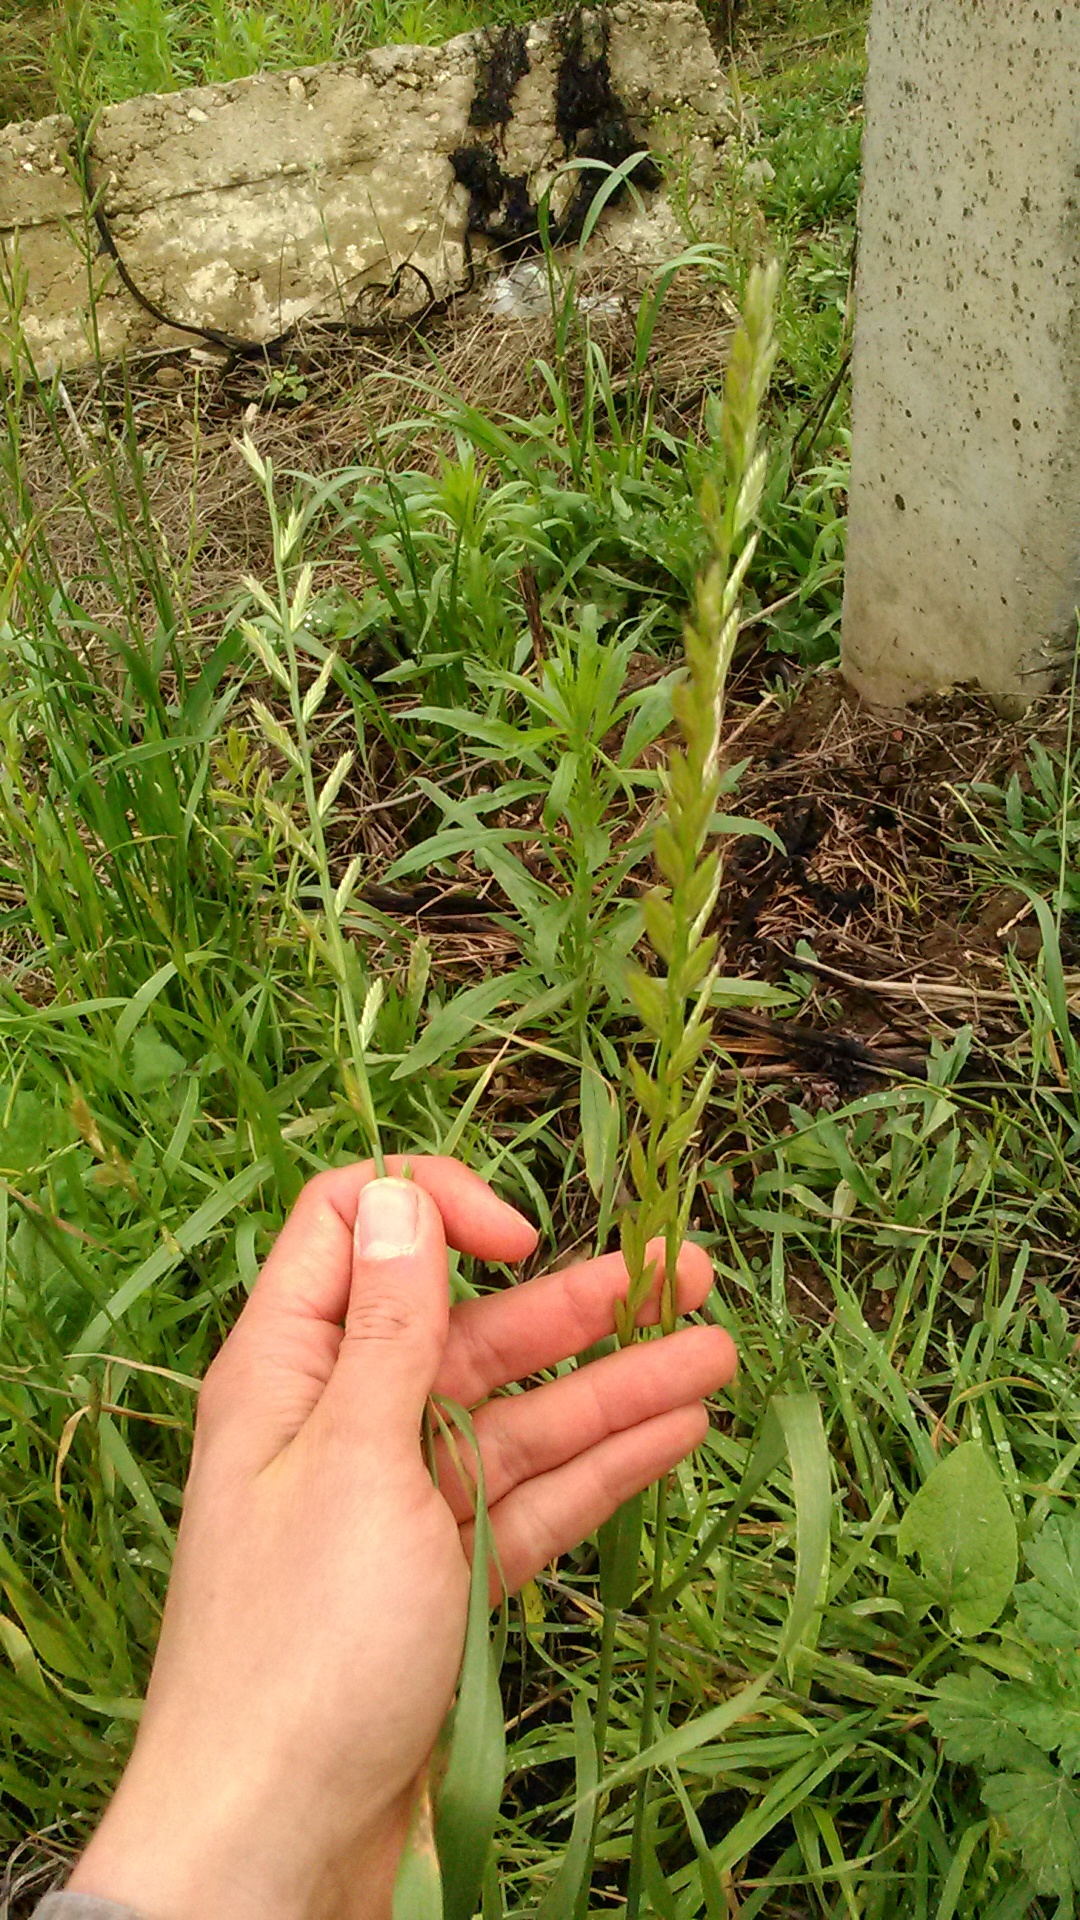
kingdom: Plantae
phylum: Tracheophyta
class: Liliopsida
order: Poales
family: Poaceae
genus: Lolium
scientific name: Lolium multiflorum
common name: Annual ryegrass
